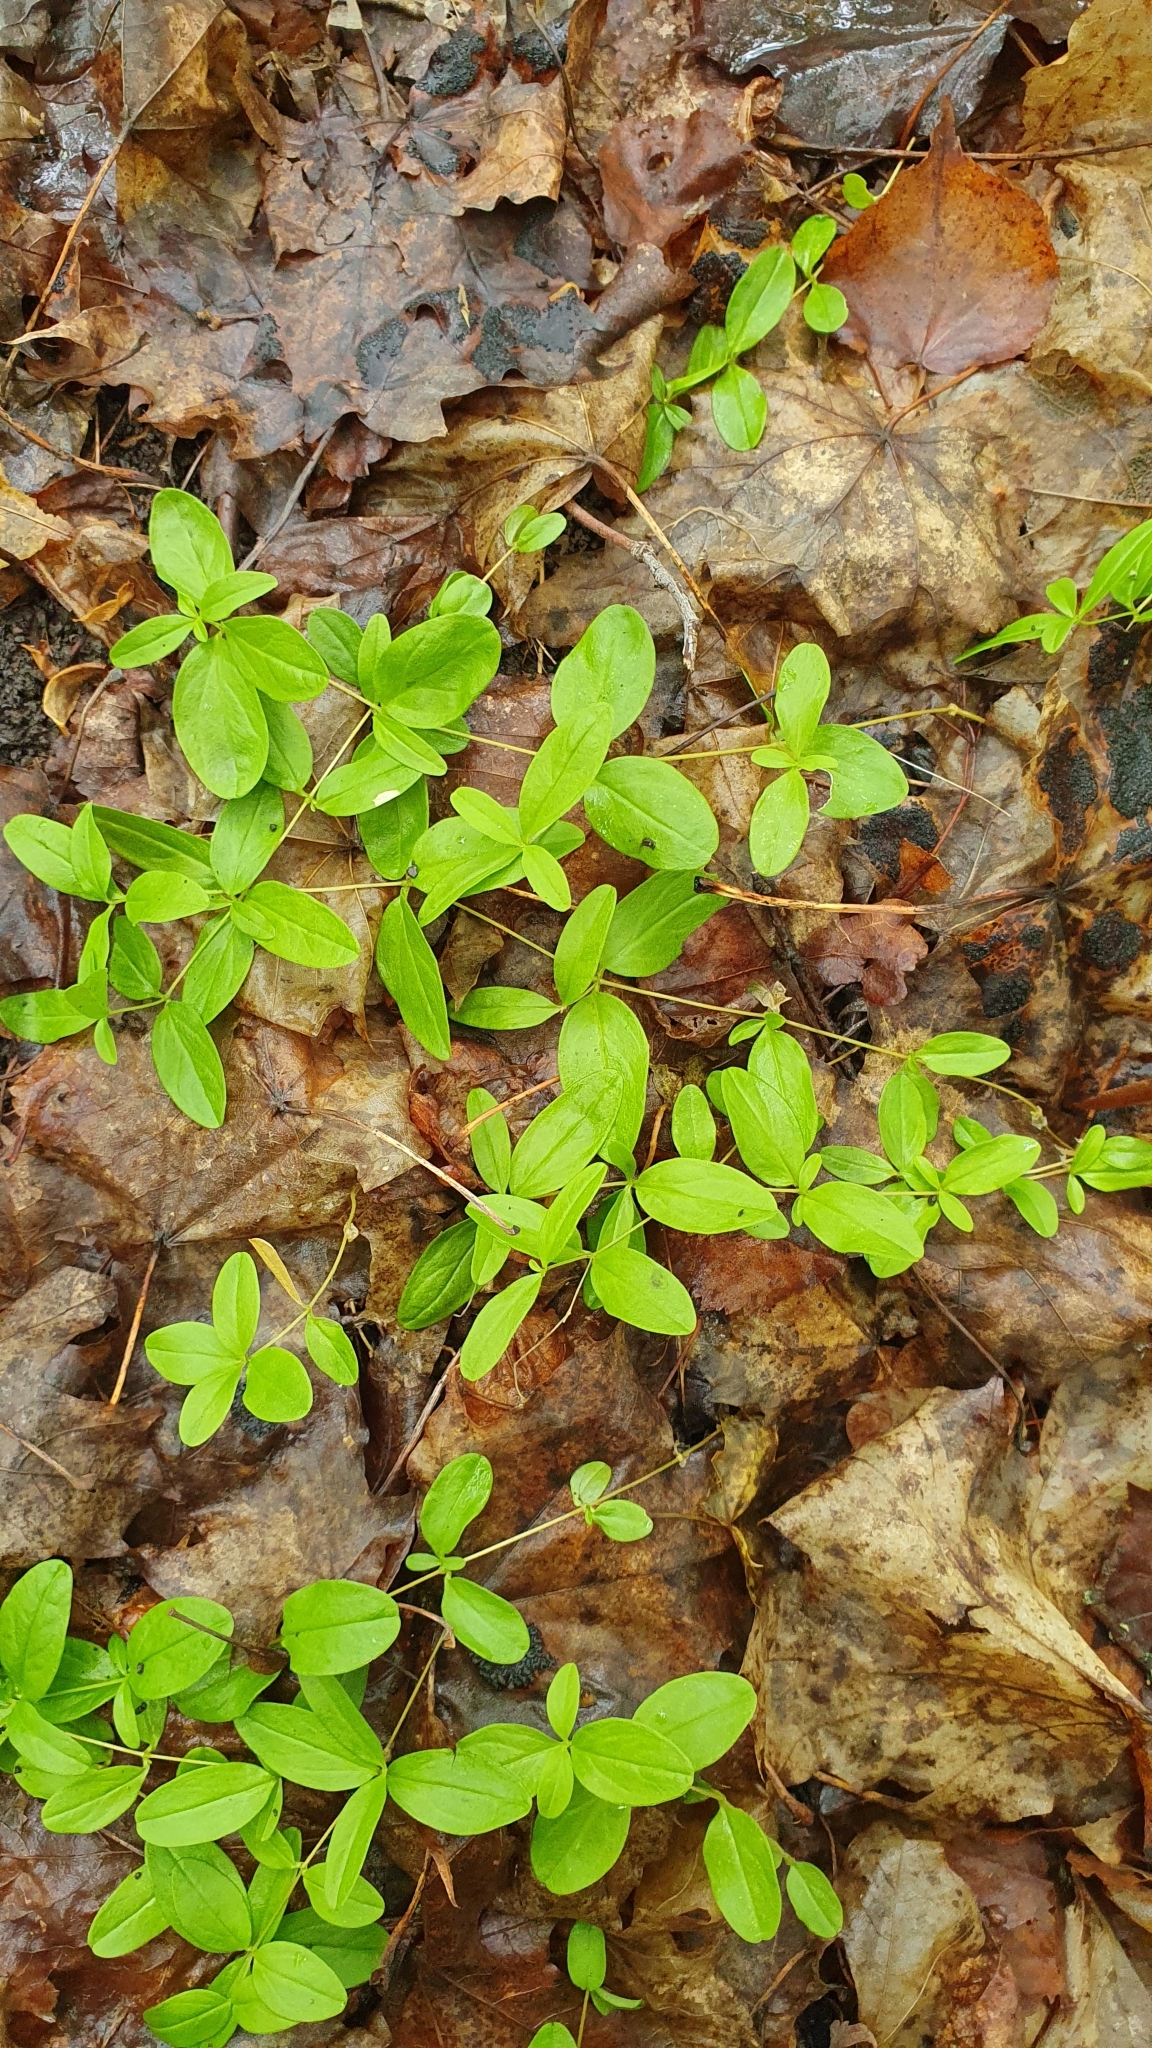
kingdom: Plantae
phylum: Tracheophyta
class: Magnoliopsida
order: Caryophyllales
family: Caryophyllaceae
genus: Moehringia
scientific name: Moehringia lateriflora
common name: Blunt-leaved sandwort
